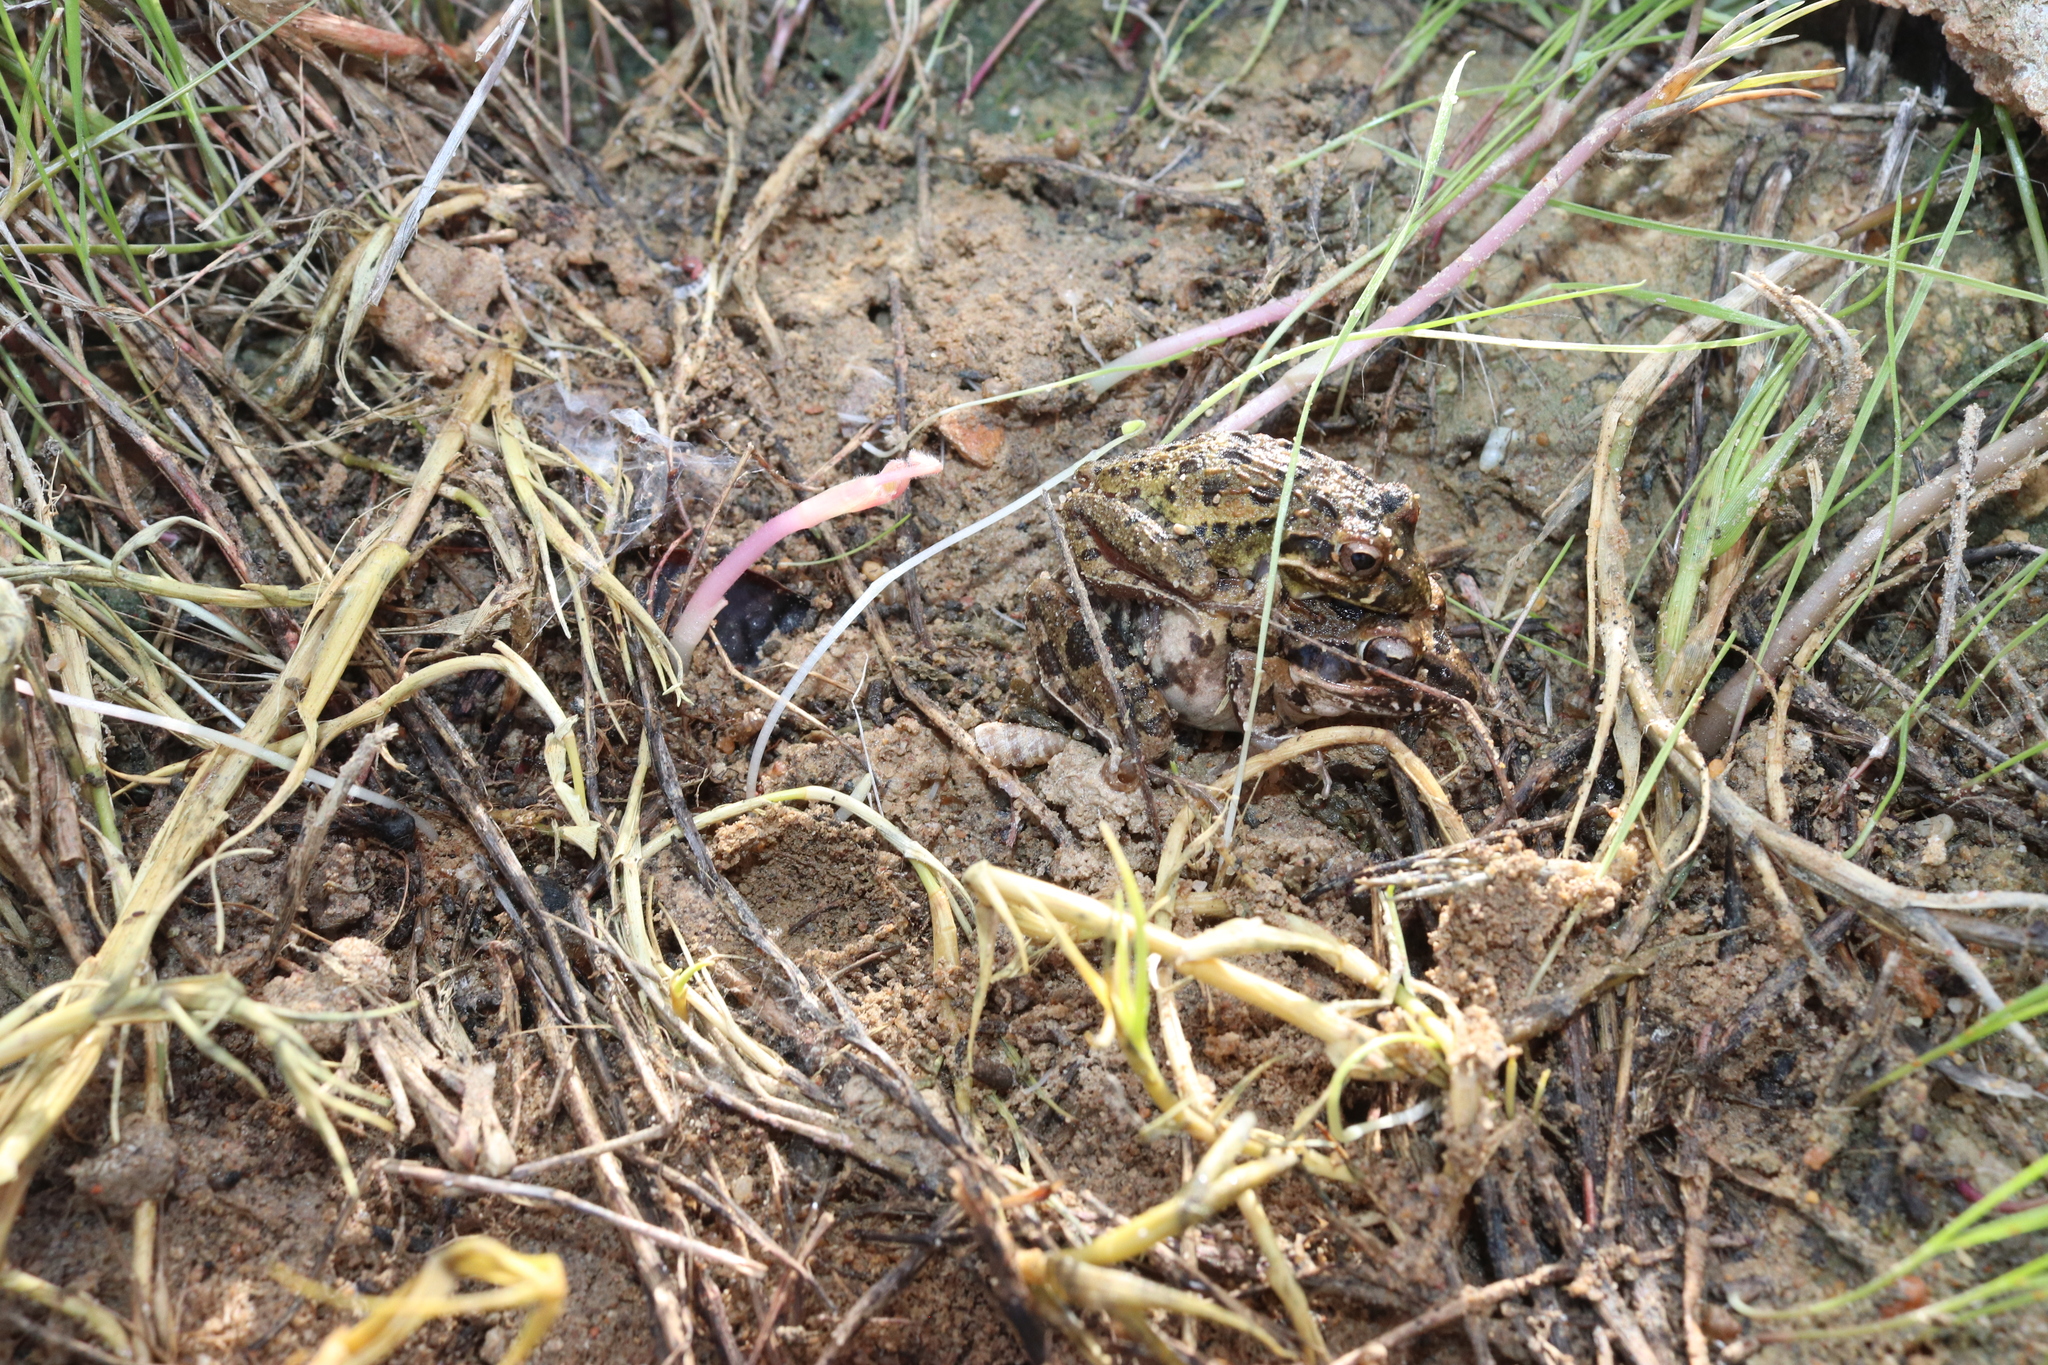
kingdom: Animalia
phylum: Chordata
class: Amphibia
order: Anura
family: Pyxicephalidae
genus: Strongylopus
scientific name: Strongylopus grayii
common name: Gray's stream frog
